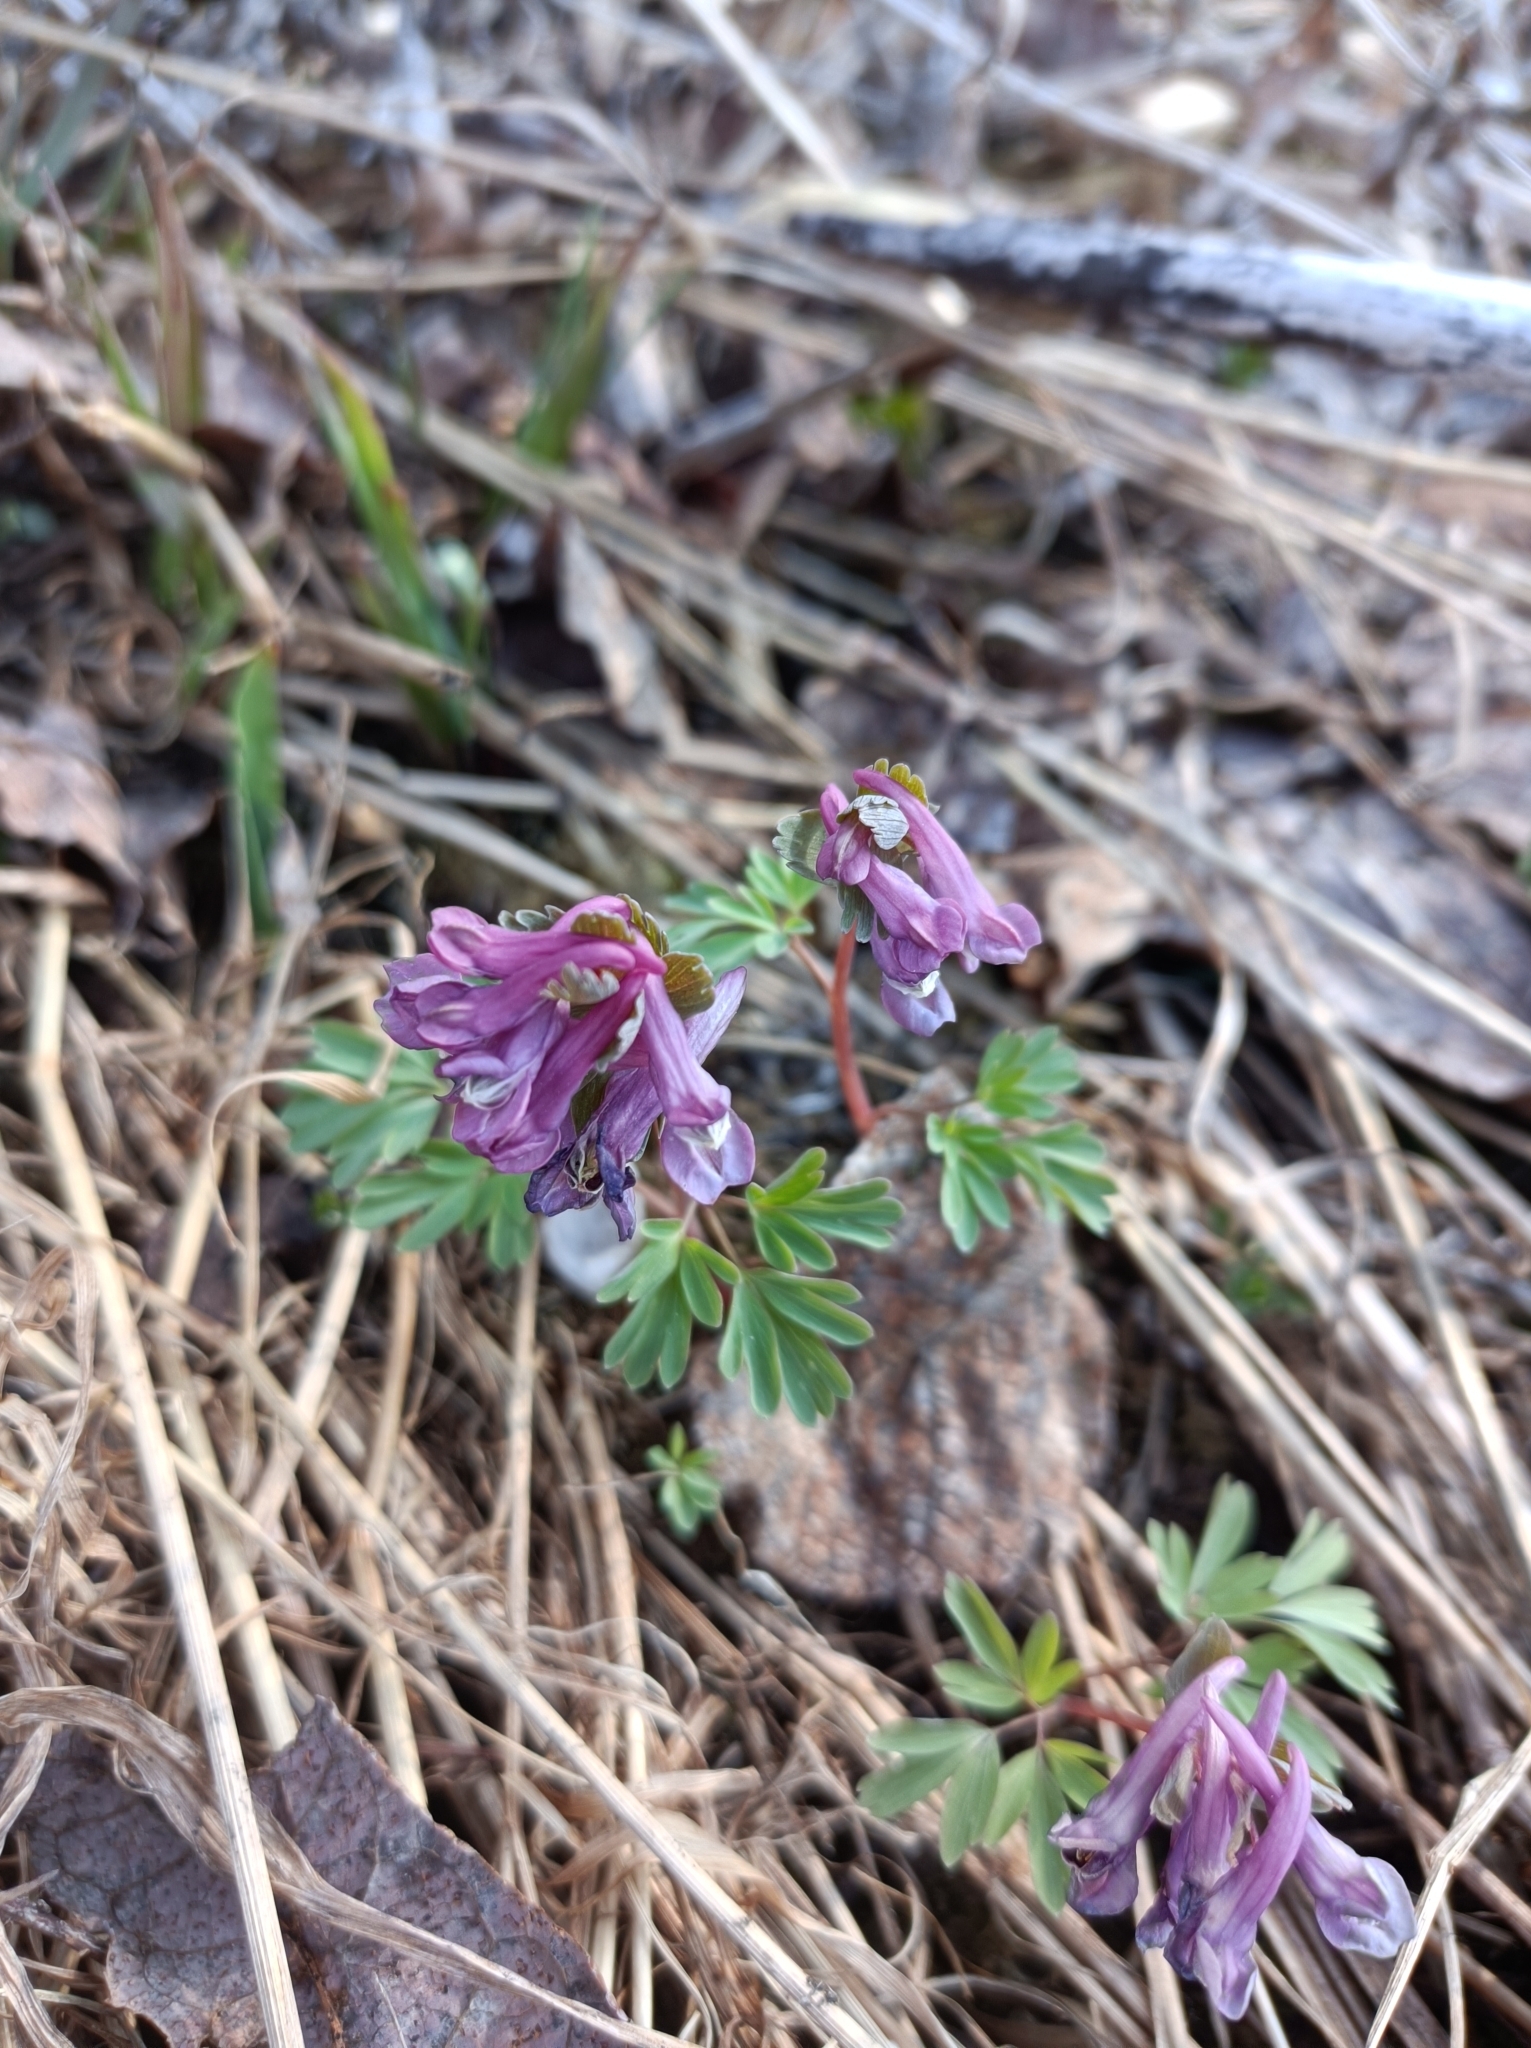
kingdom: Plantae
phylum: Tracheophyta
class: Magnoliopsida
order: Ranunculales
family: Papaveraceae
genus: Corydalis
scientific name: Corydalis solida
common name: Bird-in-a-bush
